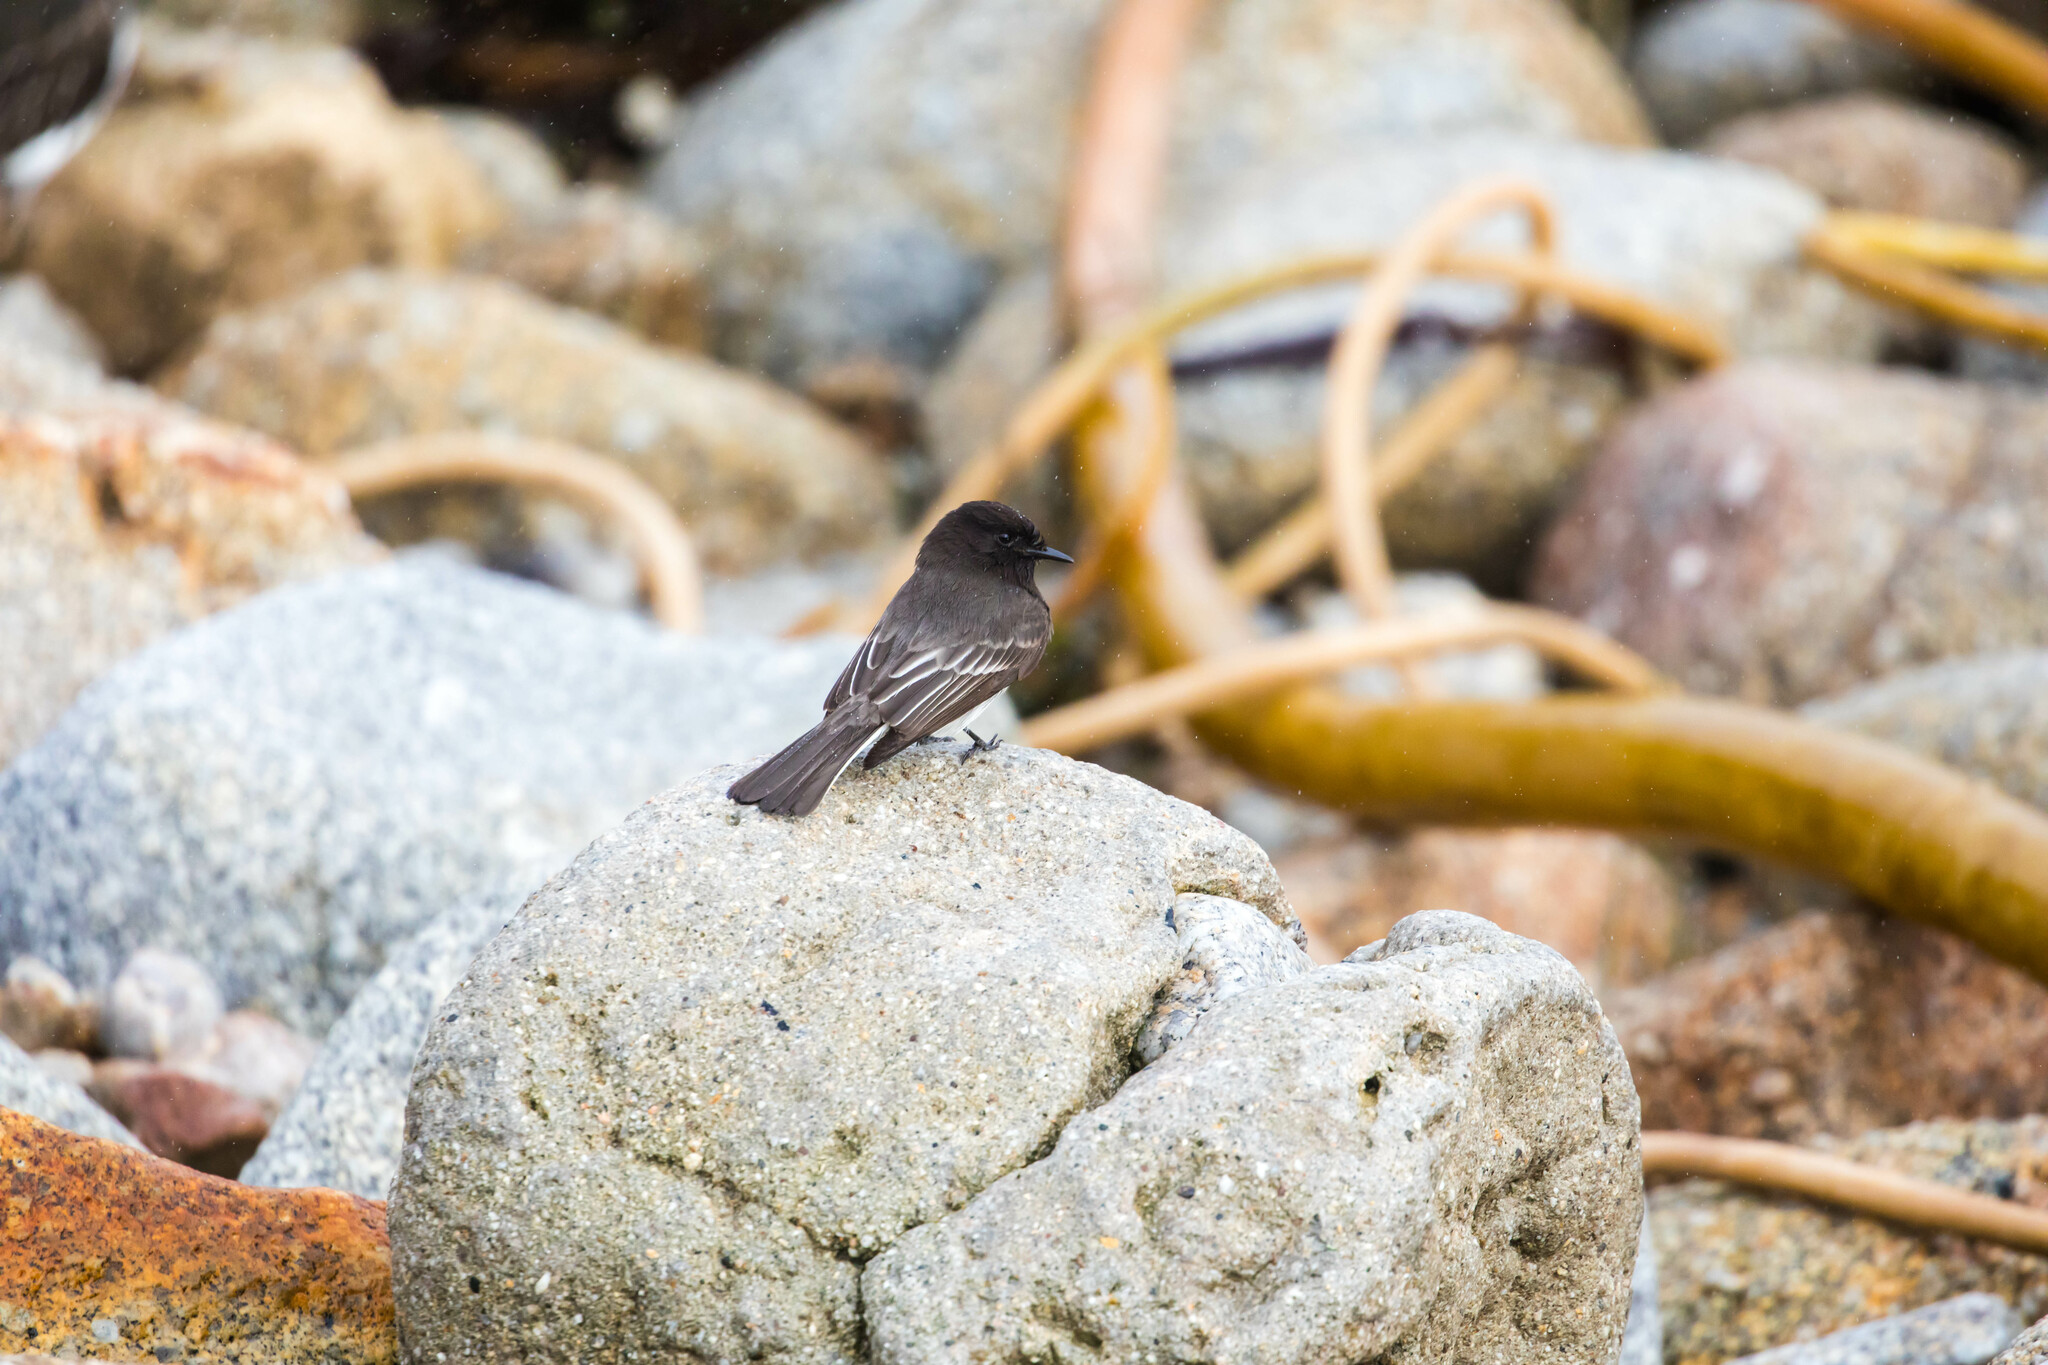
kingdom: Animalia
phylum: Chordata
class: Aves
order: Passeriformes
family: Tyrannidae
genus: Sayornis
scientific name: Sayornis nigricans
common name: Black phoebe
